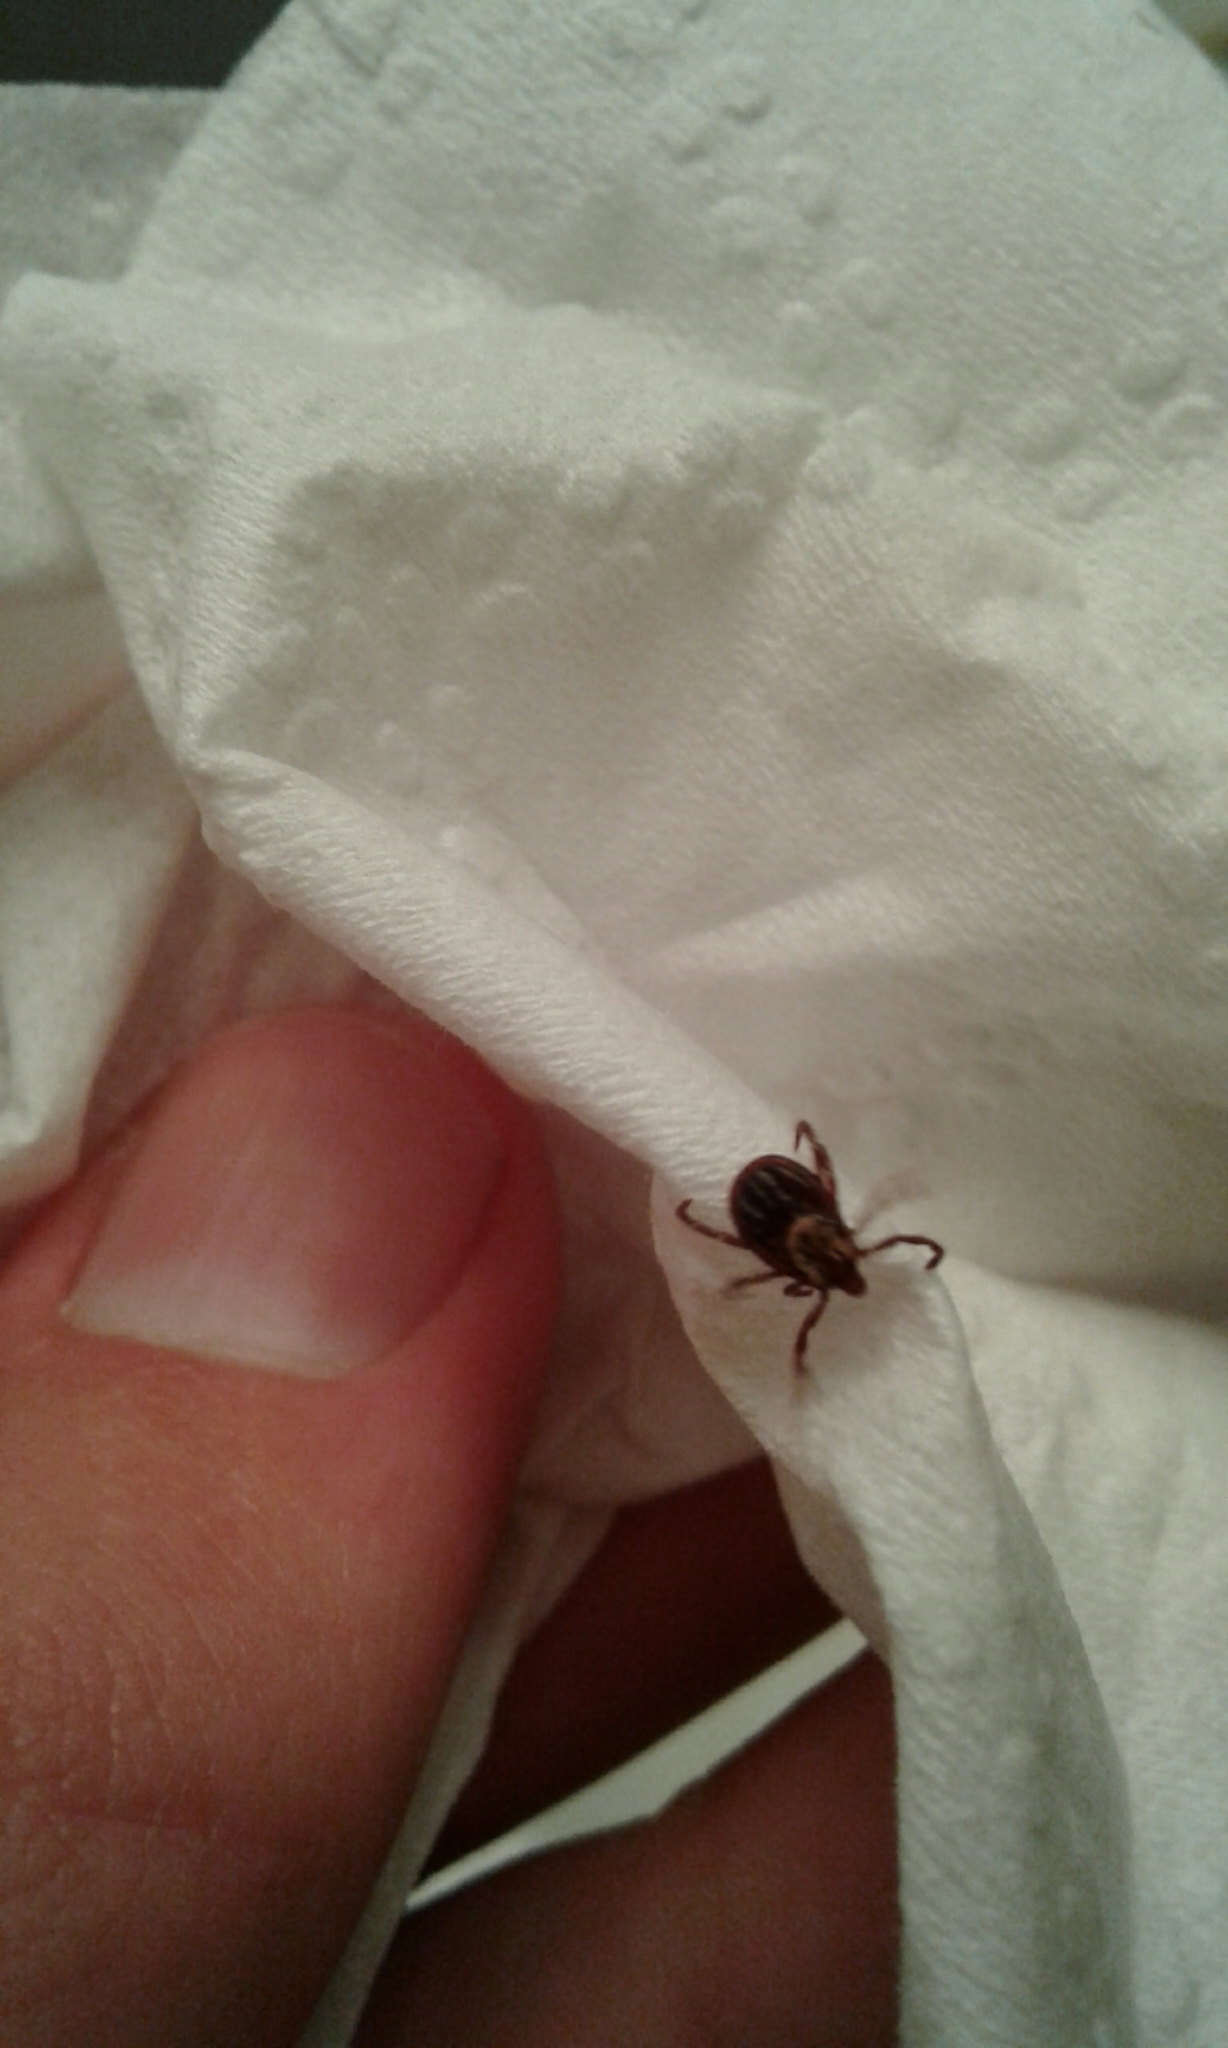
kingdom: Animalia
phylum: Arthropoda
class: Arachnida
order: Ixodida
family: Ixodidae
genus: Dermacentor
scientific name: Dermacentor variabilis
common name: American dog tick
